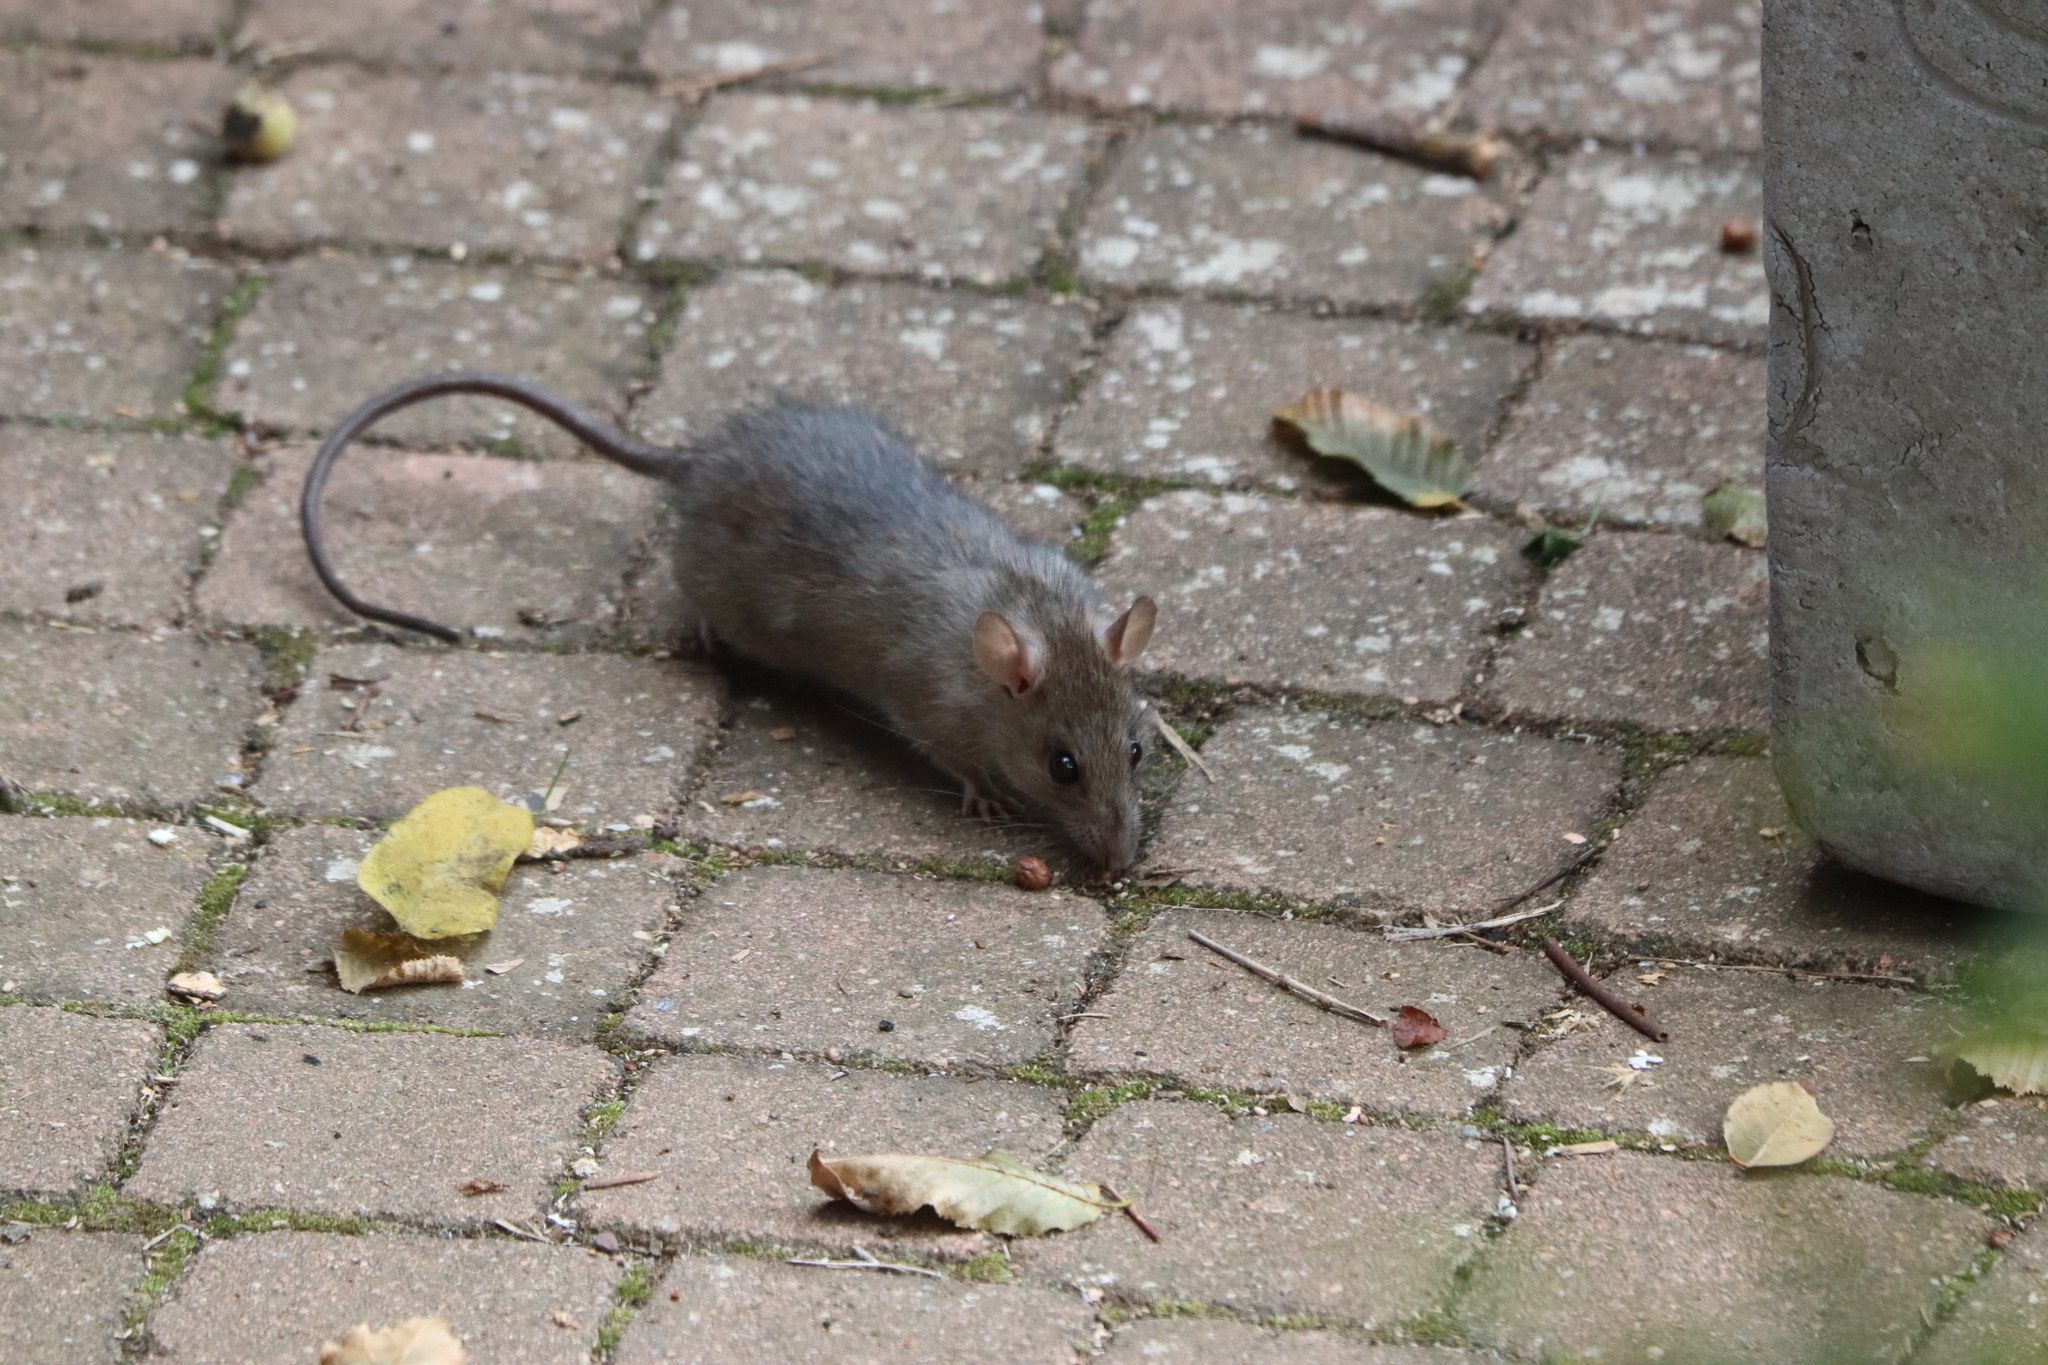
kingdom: Animalia
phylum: Chordata
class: Mammalia
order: Rodentia
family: Muridae
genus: Rattus
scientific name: Rattus rattus
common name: Black rat
